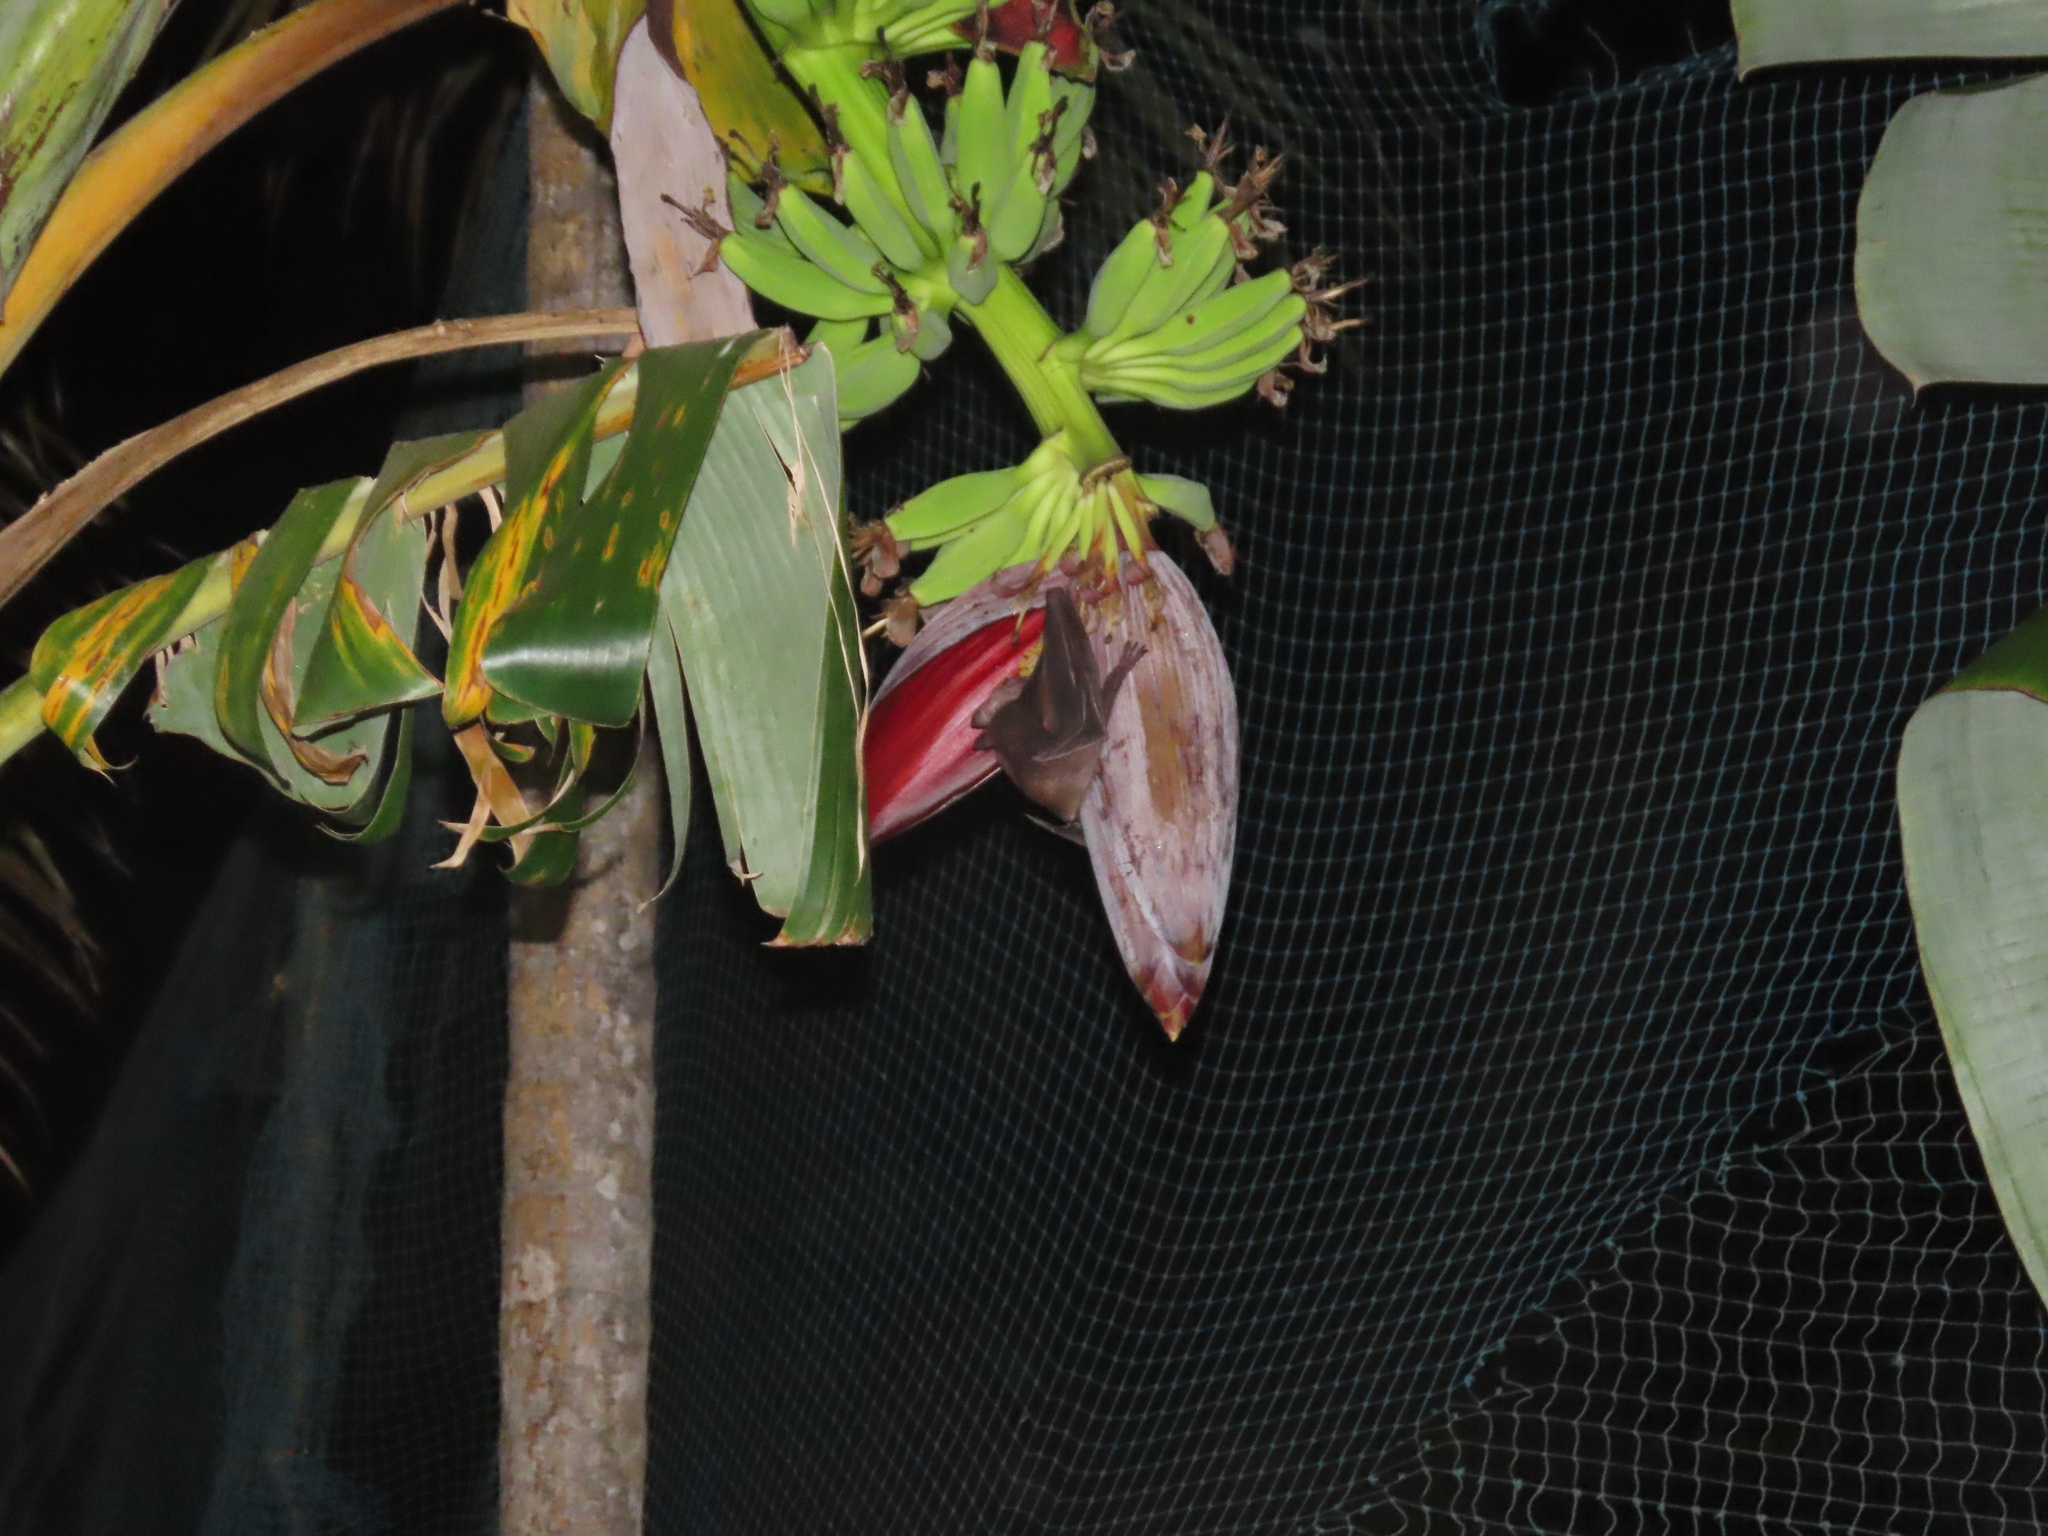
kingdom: Animalia
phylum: Chordata
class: Mammalia
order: Chiroptera
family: Pteropodidae
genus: Rousettus
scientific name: Rousettus leschenaultii
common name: Leschenault's rousette
